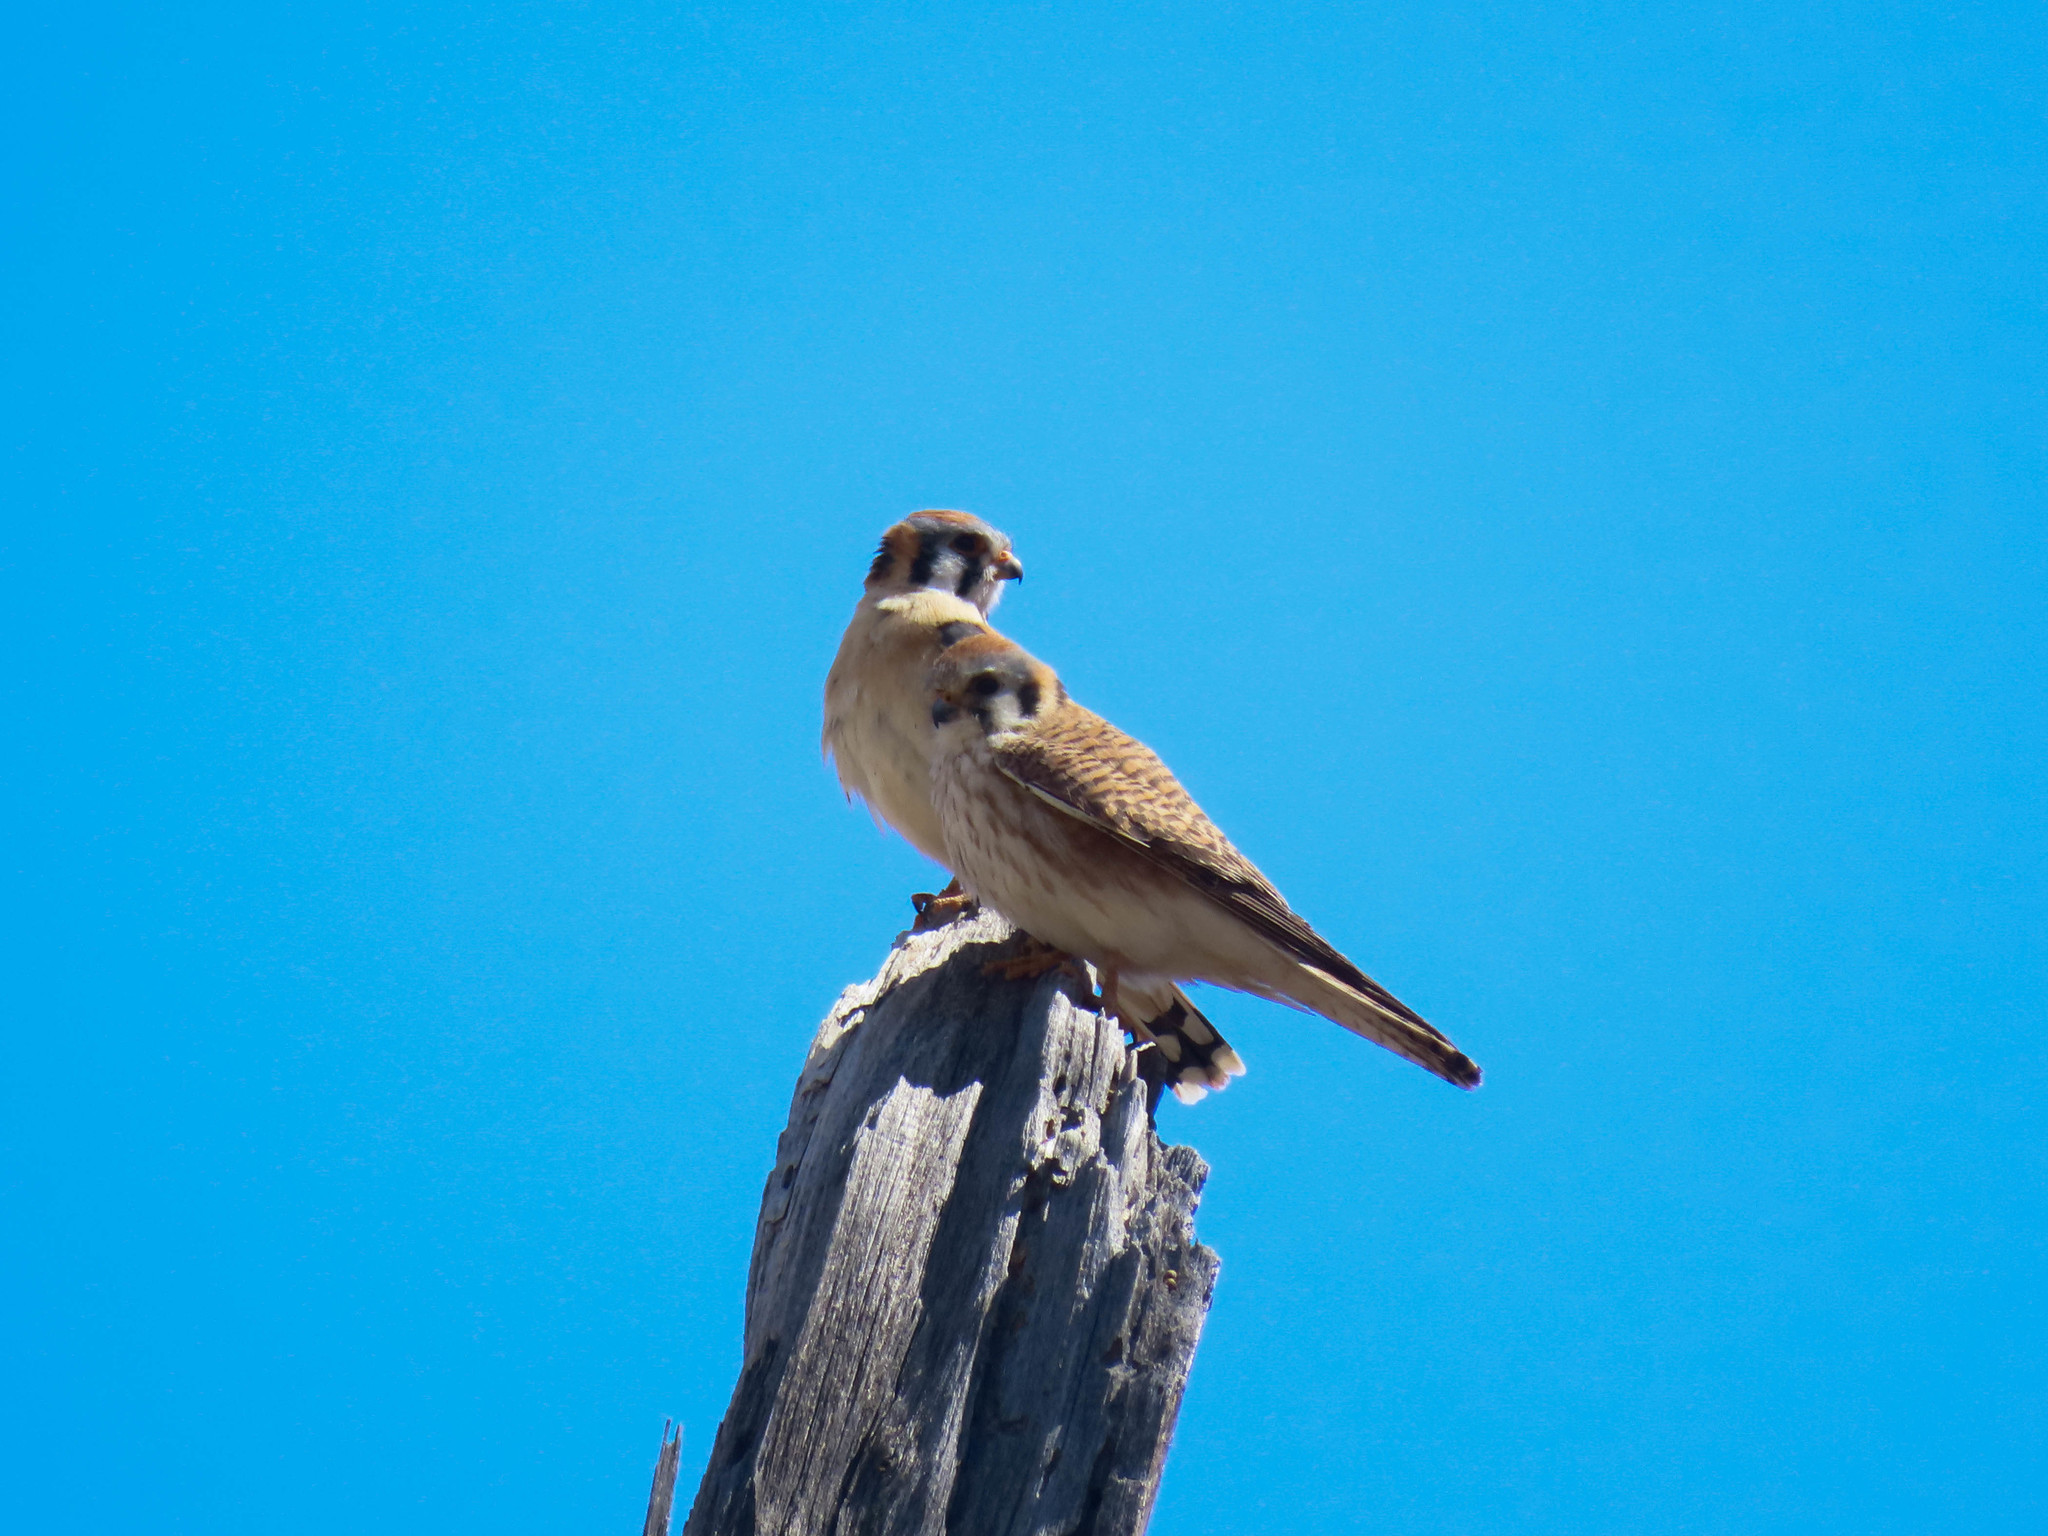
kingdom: Animalia
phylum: Chordata
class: Aves
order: Falconiformes
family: Falconidae
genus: Falco
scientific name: Falco sparverius
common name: American kestrel
